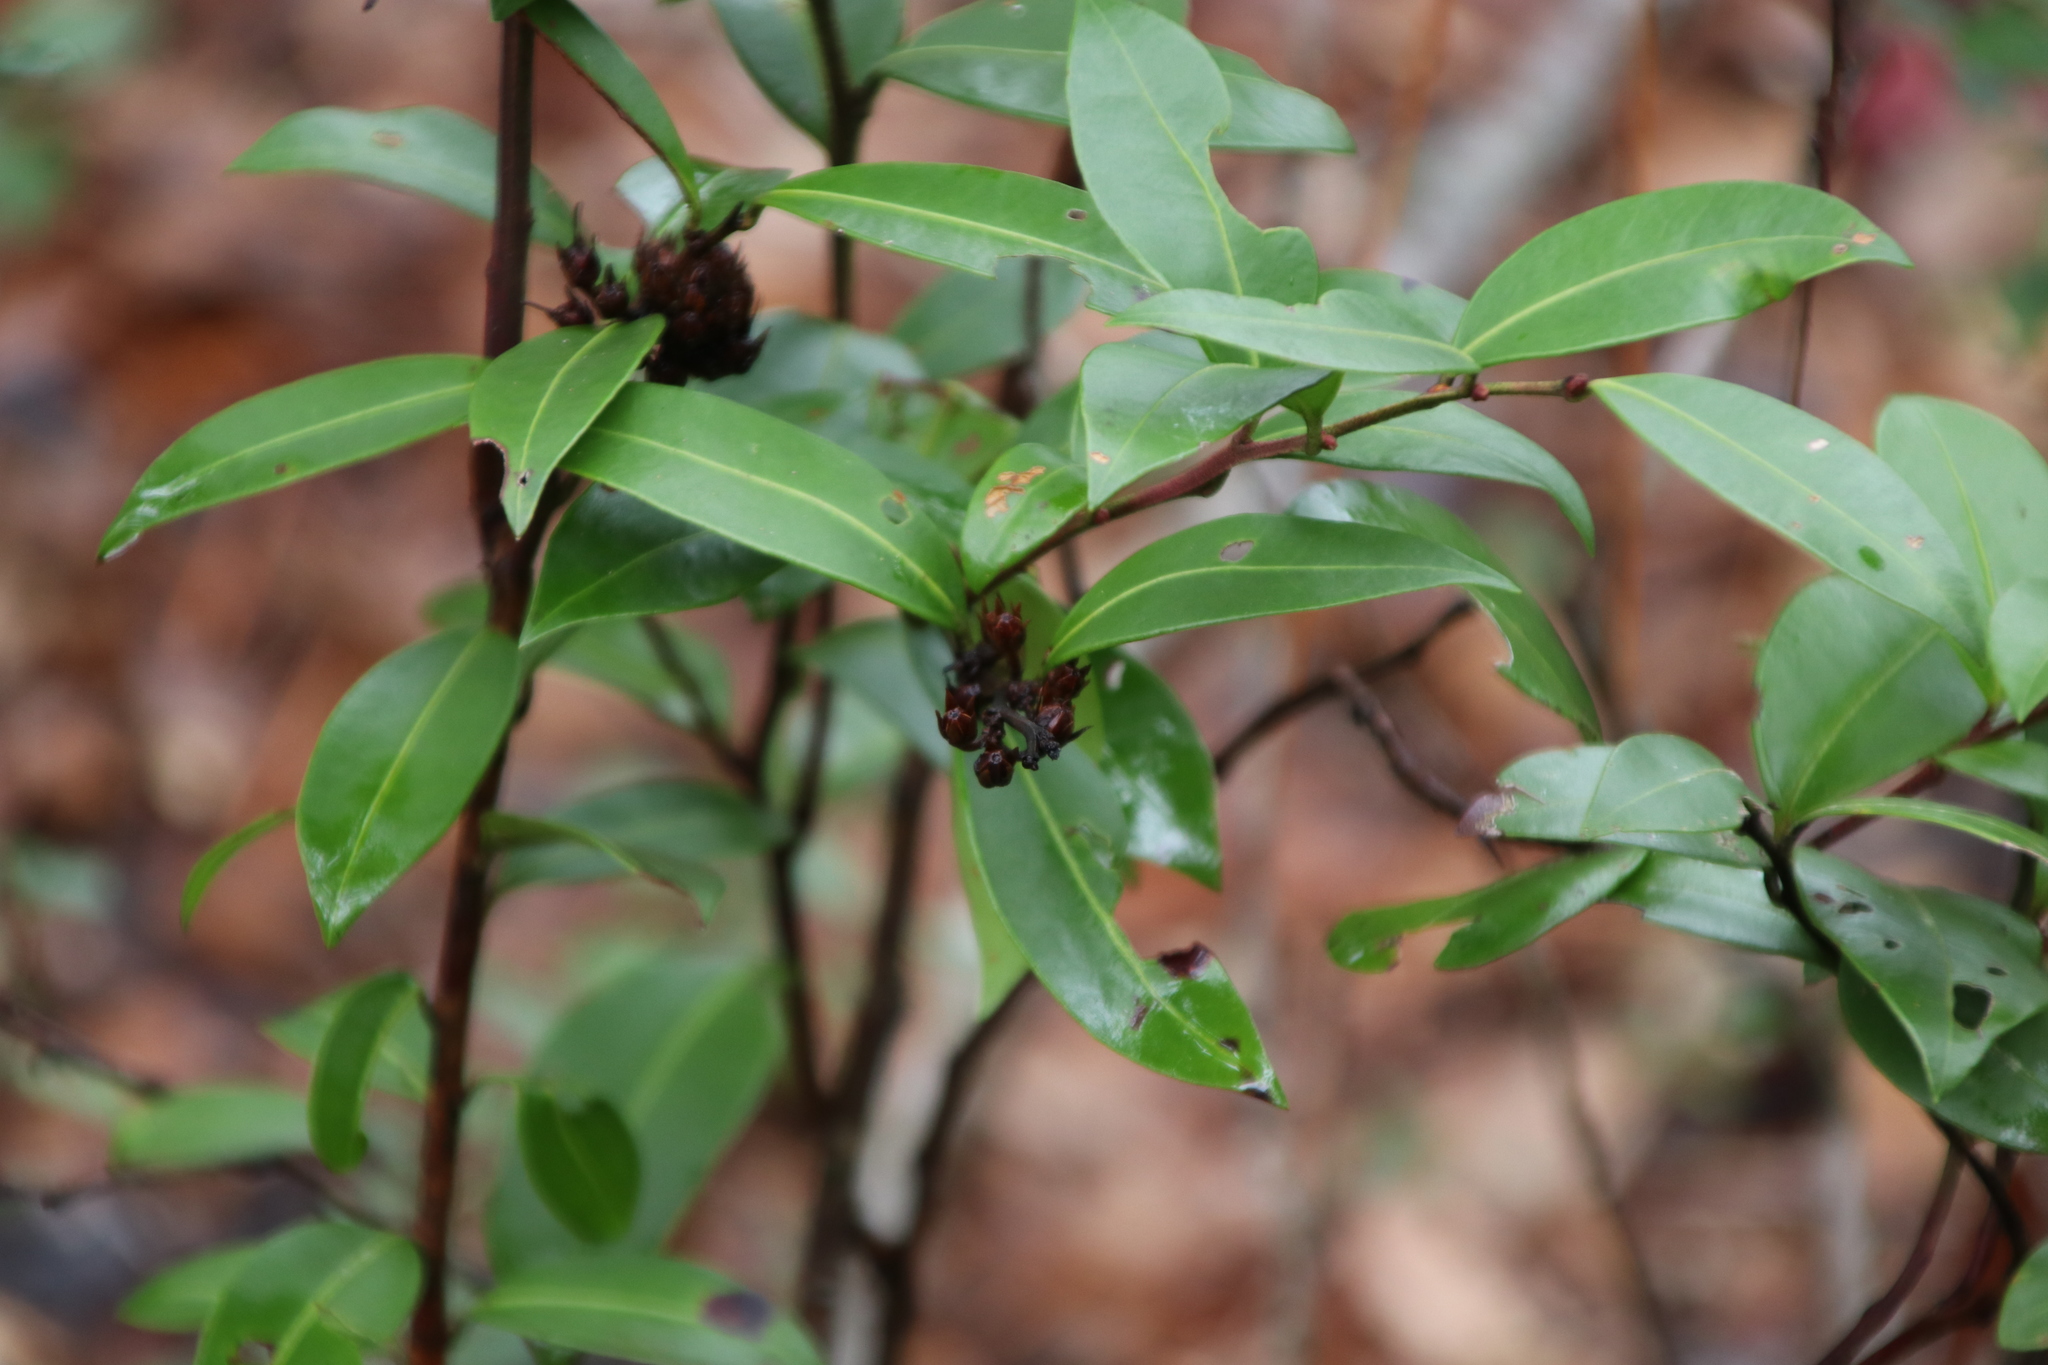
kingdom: Plantae
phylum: Tracheophyta
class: Magnoliopsida
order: Ericales
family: Ericaceae
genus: Lyonia
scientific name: Lyonia lucida
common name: Fetterbush
